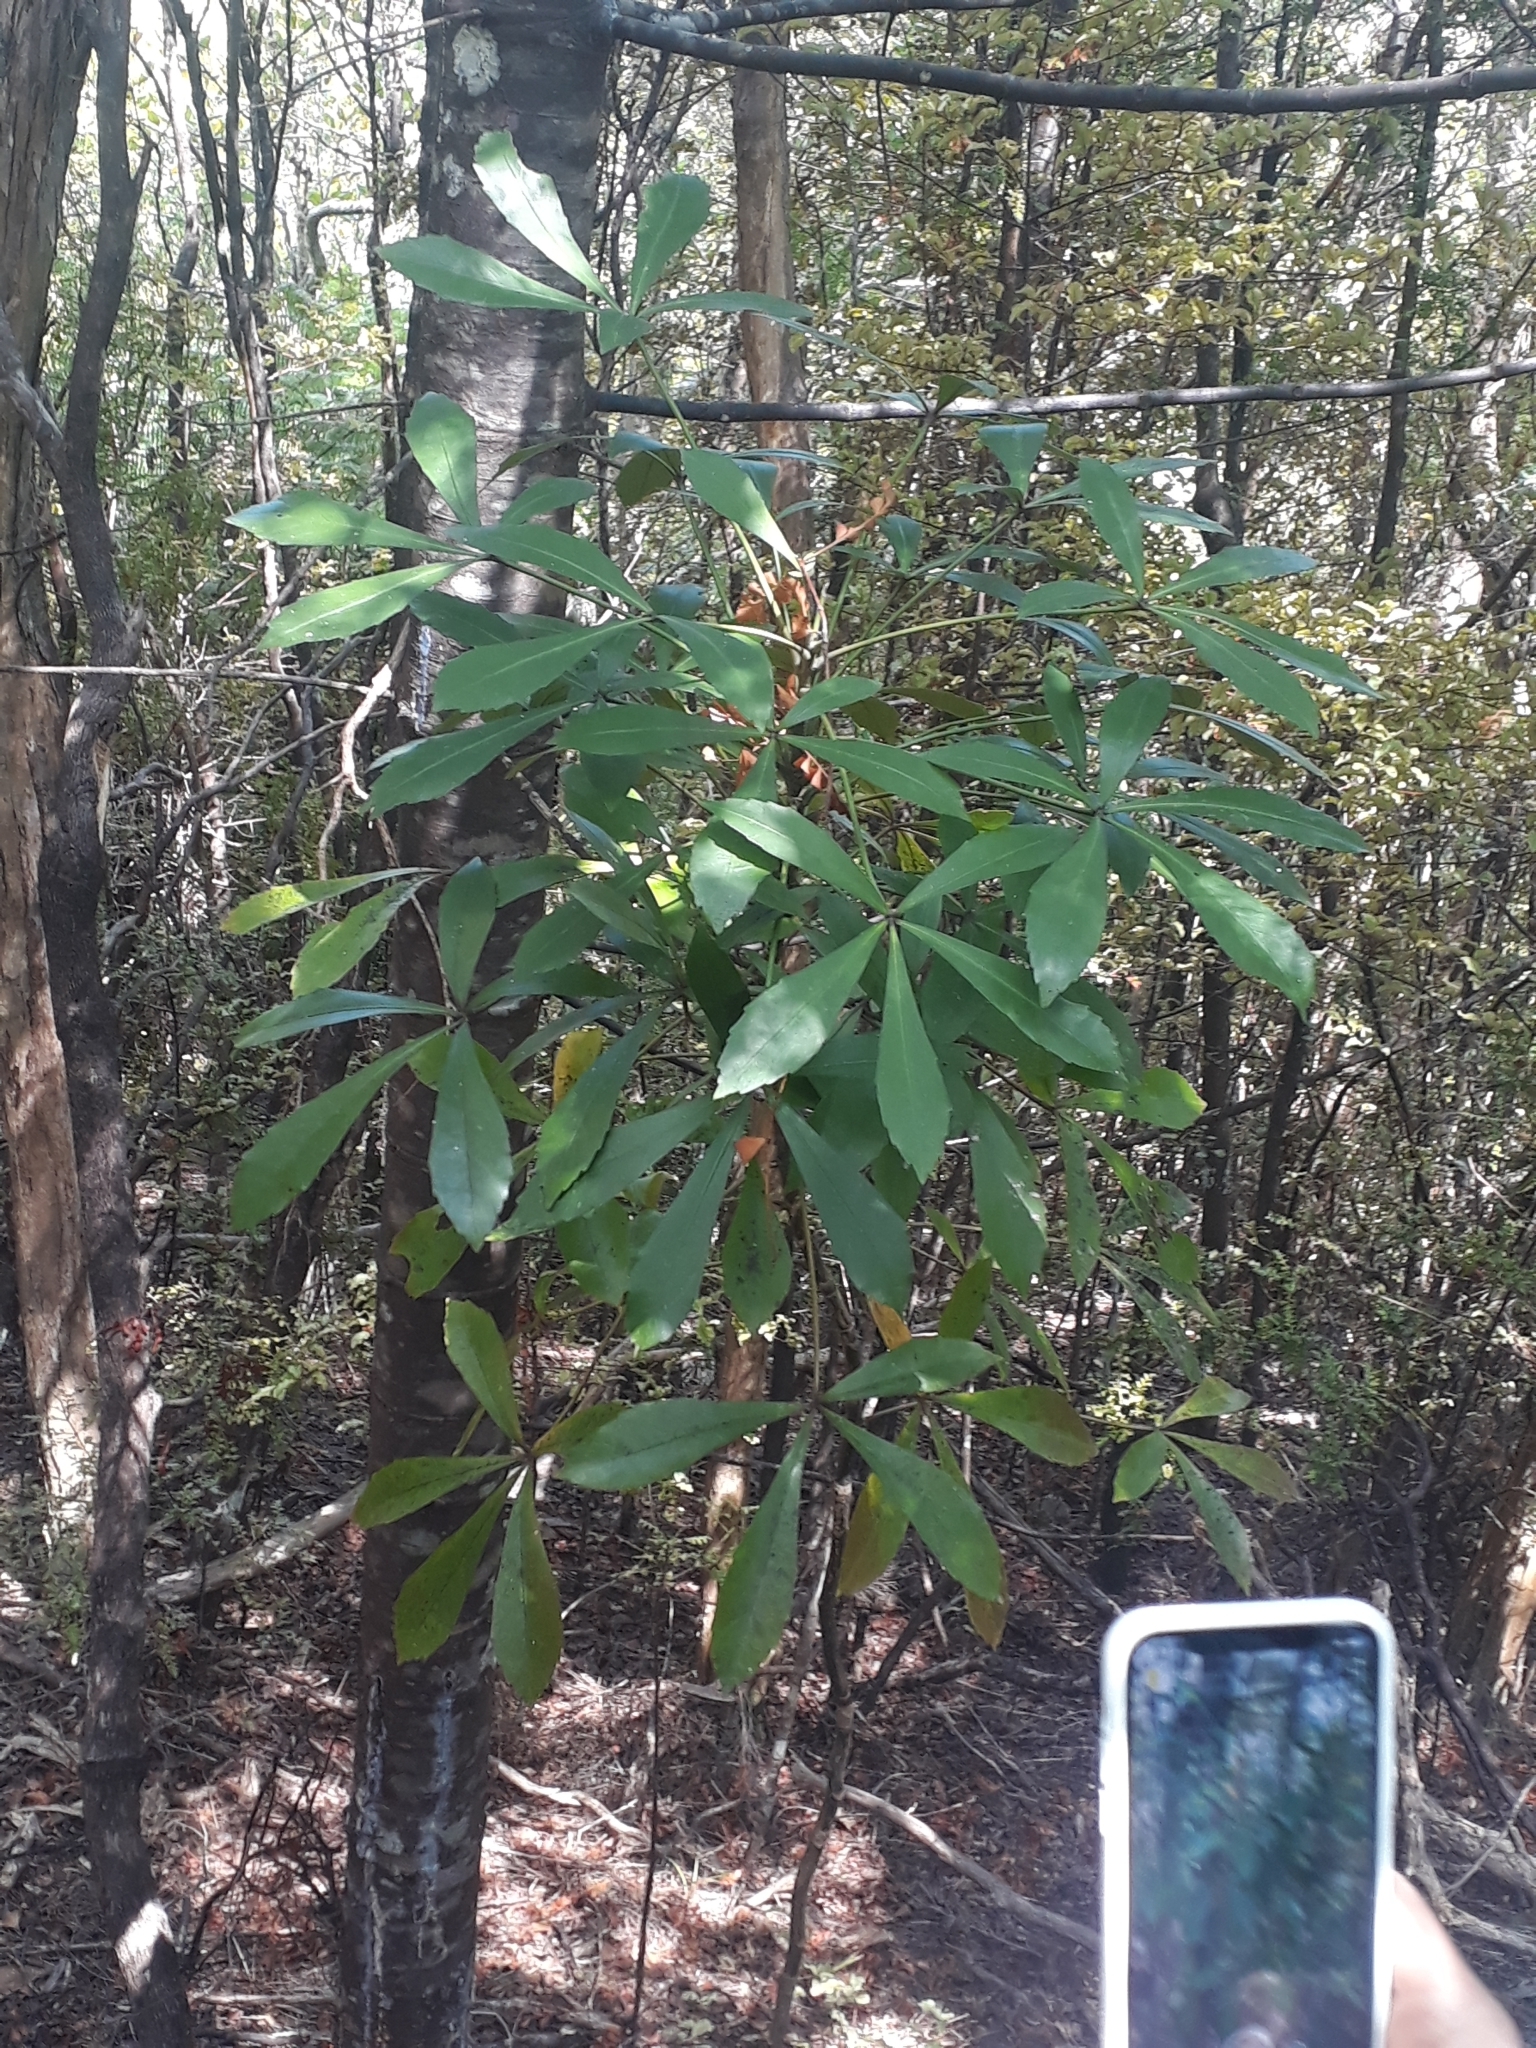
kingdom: Plantae
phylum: Tracheophyta
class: Magnoliopsida
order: Apiales
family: Araliaceae
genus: Pseudopanax
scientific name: Pseudopanax
